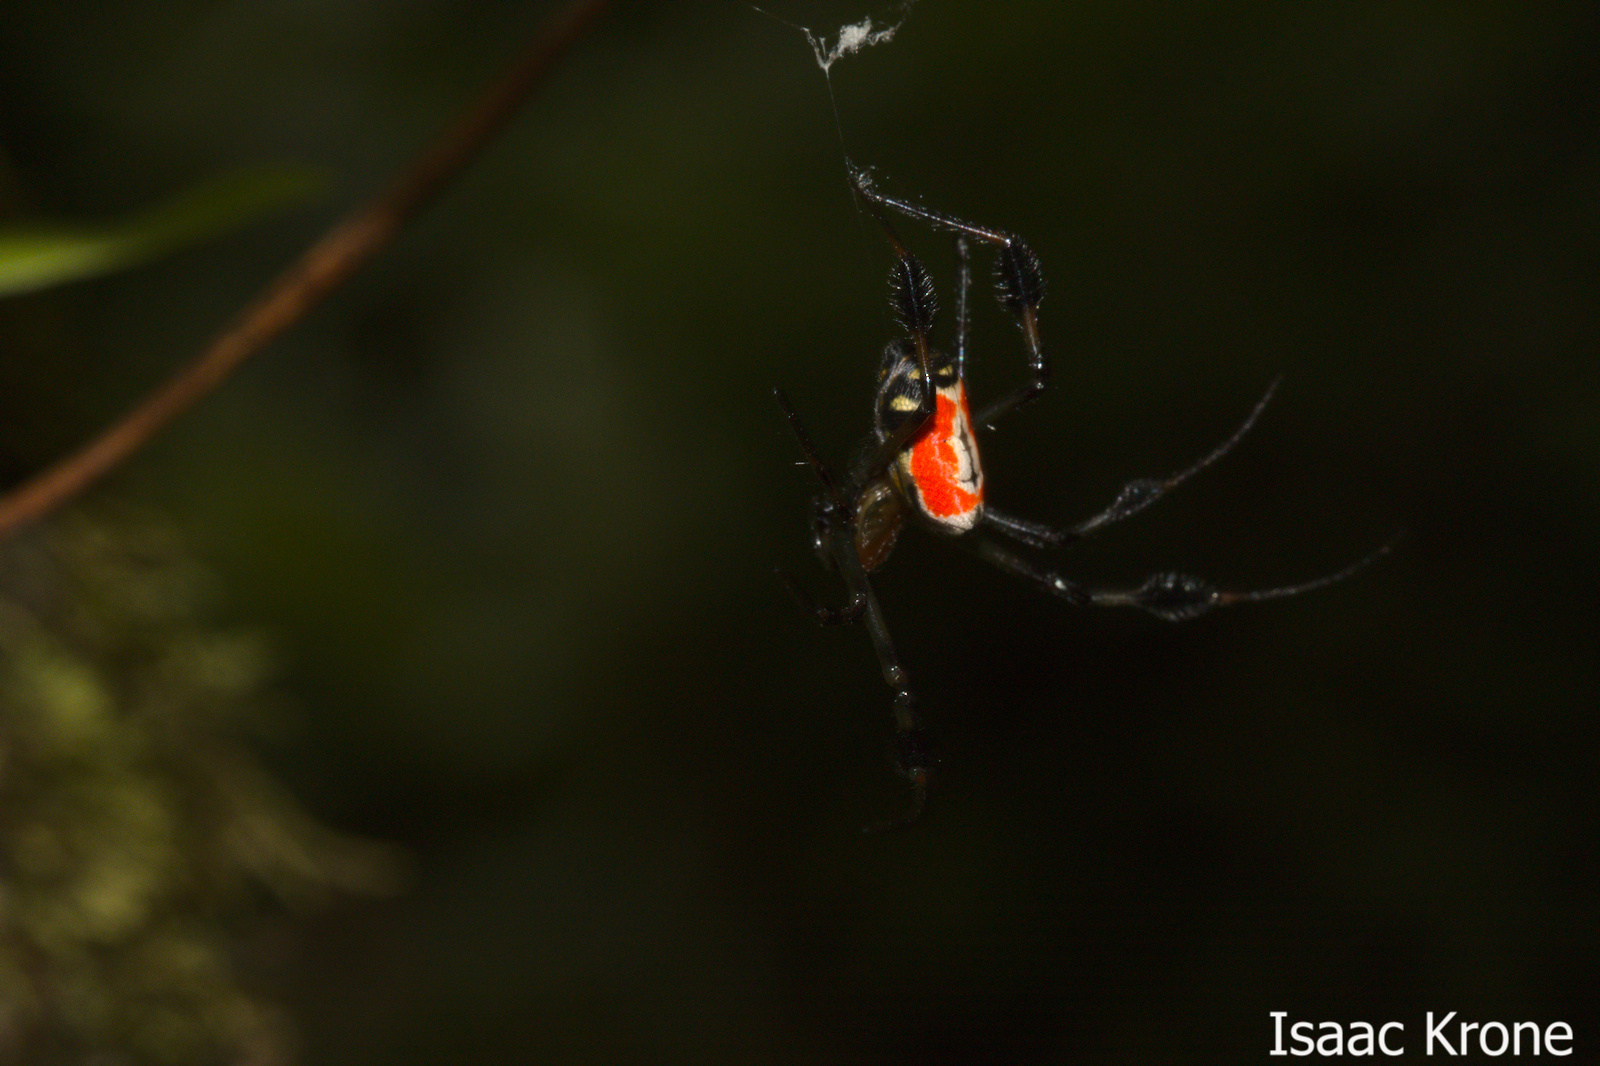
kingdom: Animalia
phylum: Arthropoda
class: Arachnida
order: Araneae
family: Tetragnathidae
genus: Leucauge
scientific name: Leucauge grata
